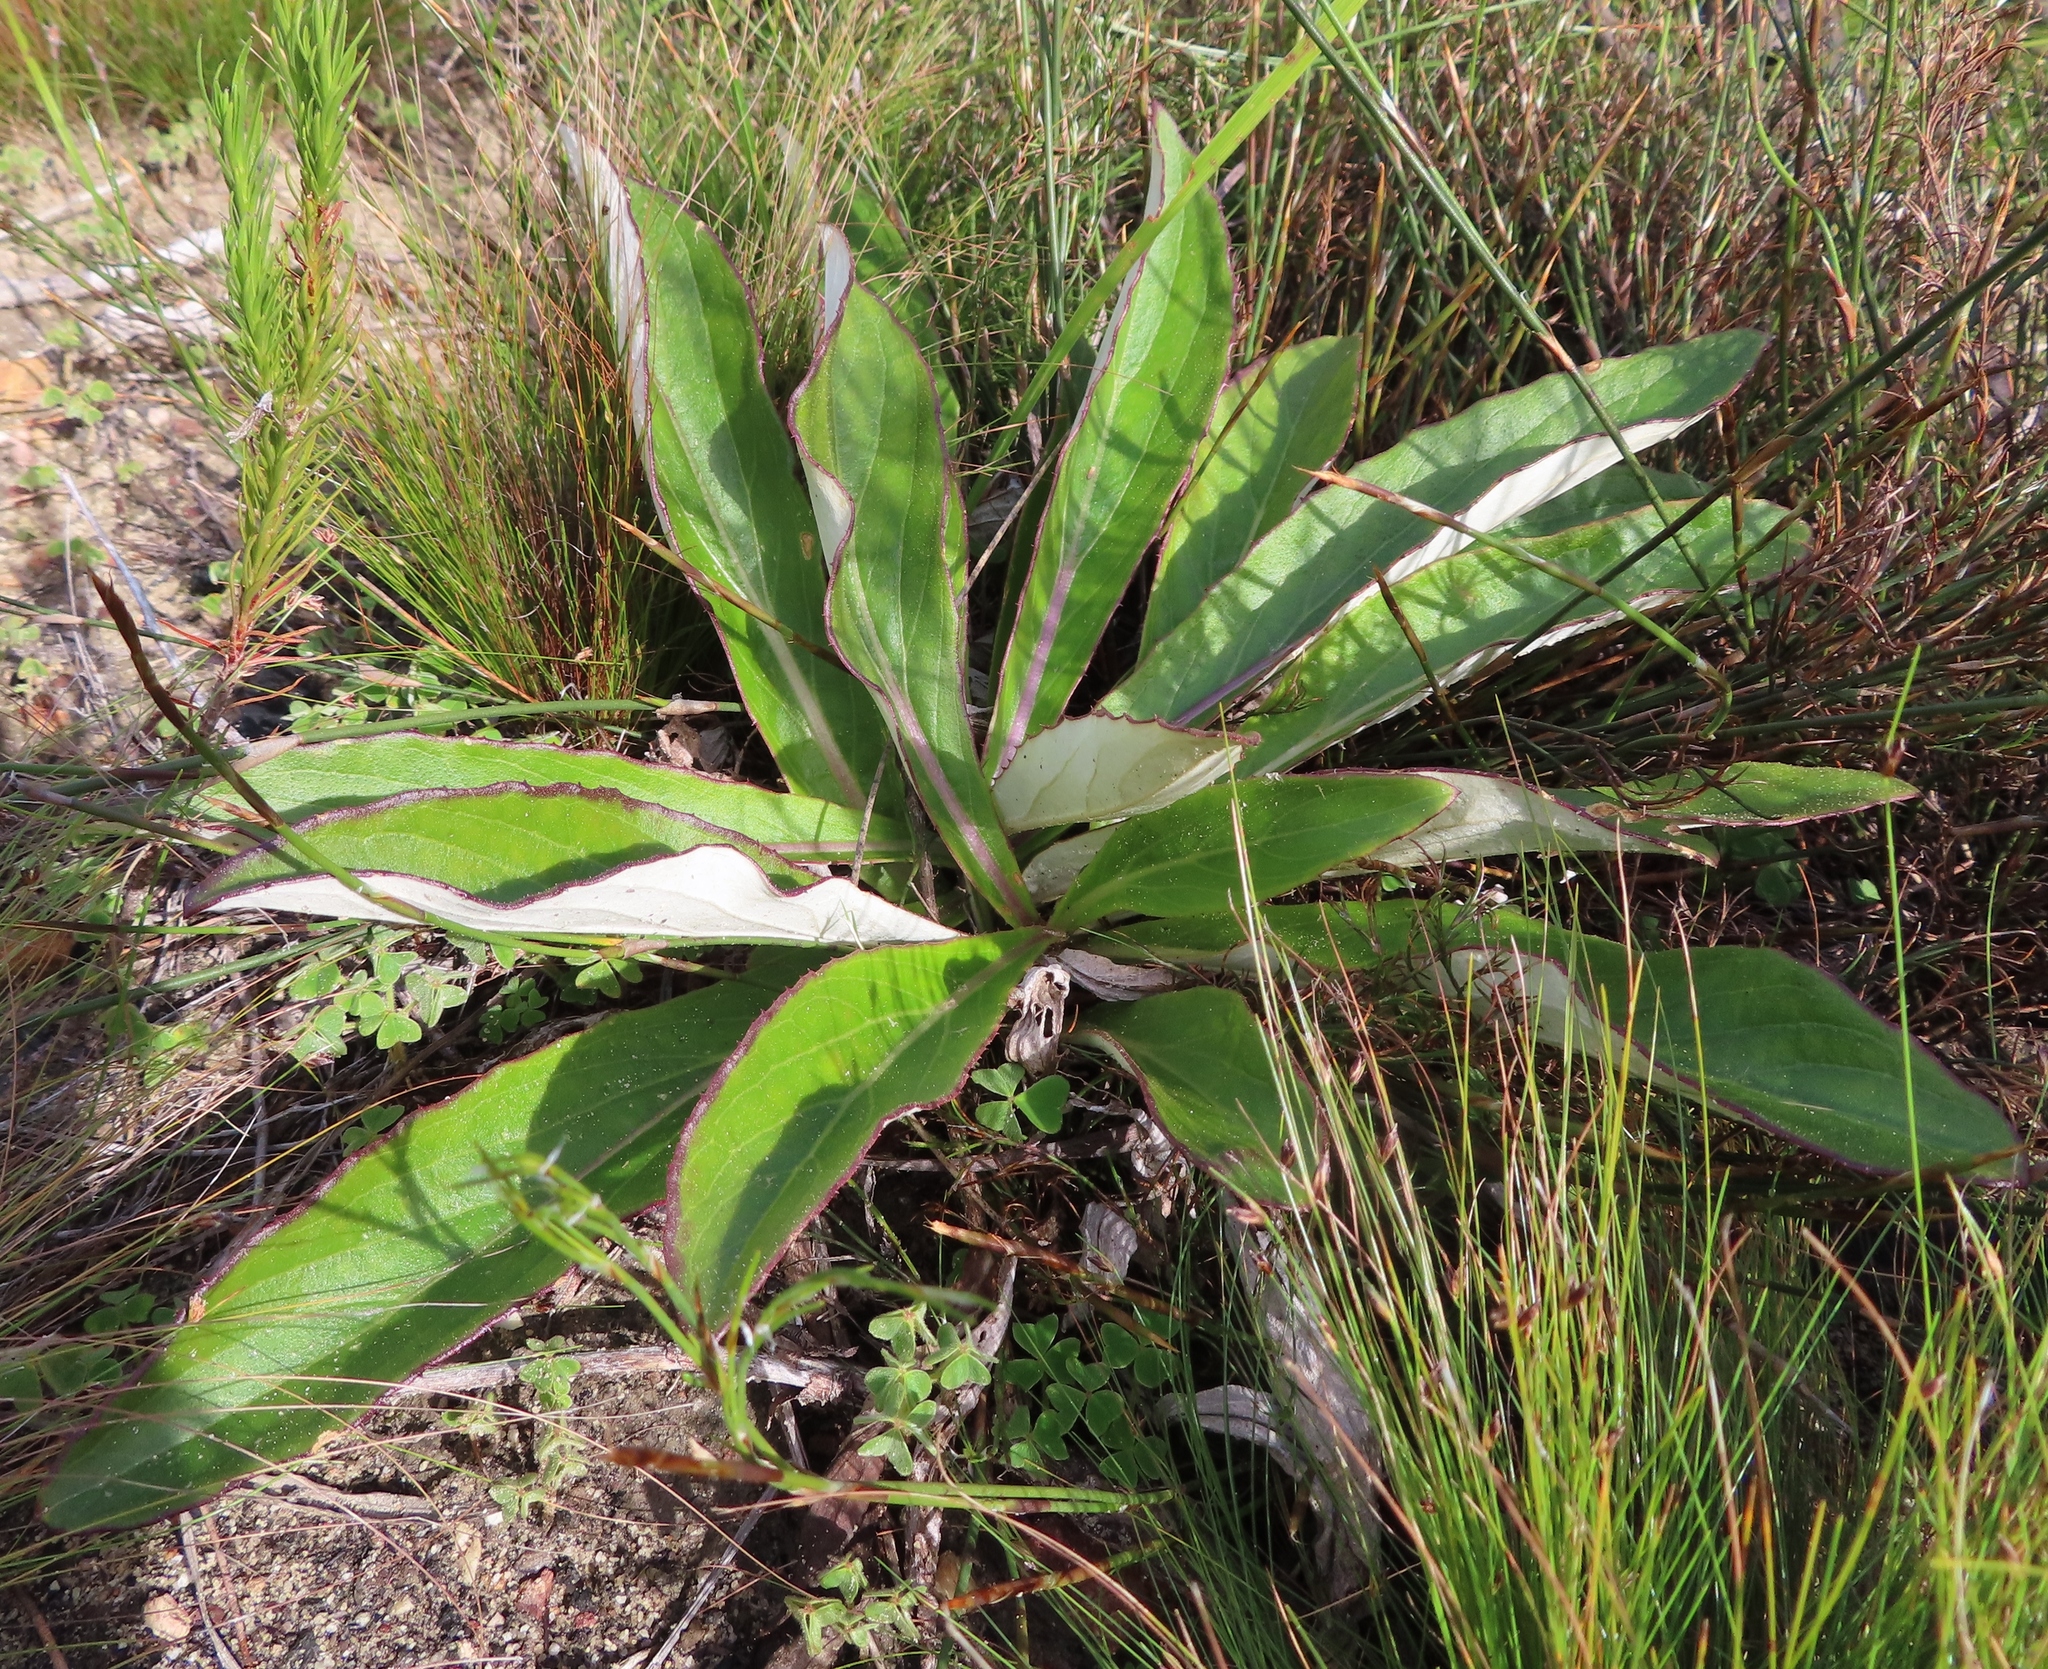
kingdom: Plantae
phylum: Tracheophyta
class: Magnoliopsida
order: Asterales
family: Asteraceae
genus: Berkheya
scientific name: Berkheya herbacea
